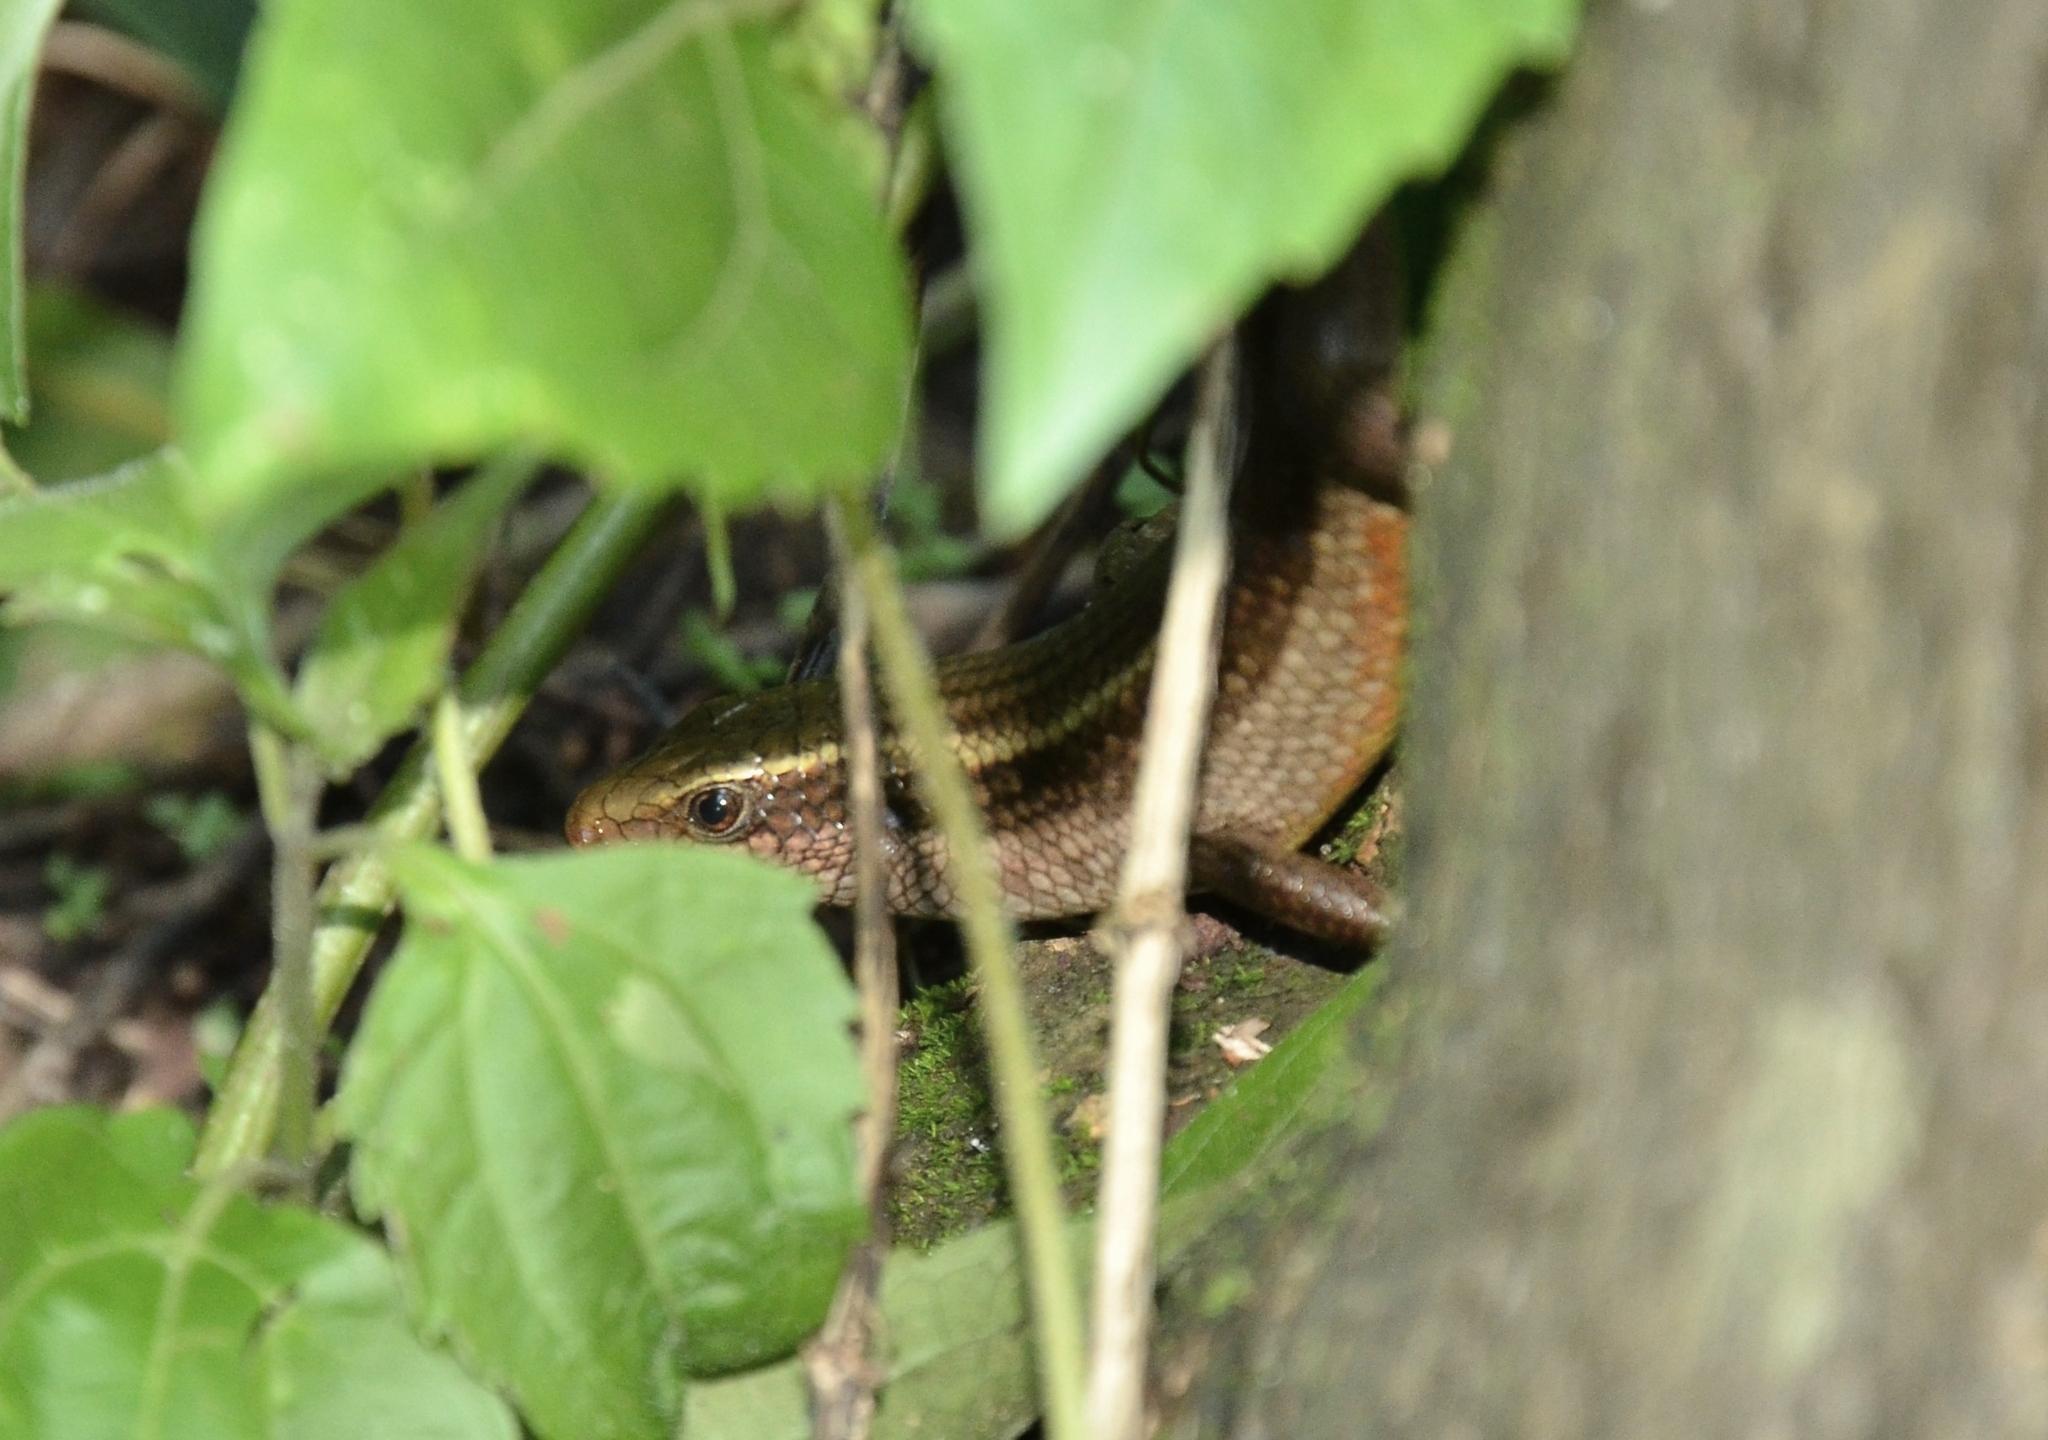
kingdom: Animalia
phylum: Chordata
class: Squamata
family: Scincidae
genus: Eutropis
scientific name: Eutropis carinata
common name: Keeled indian mabuya
